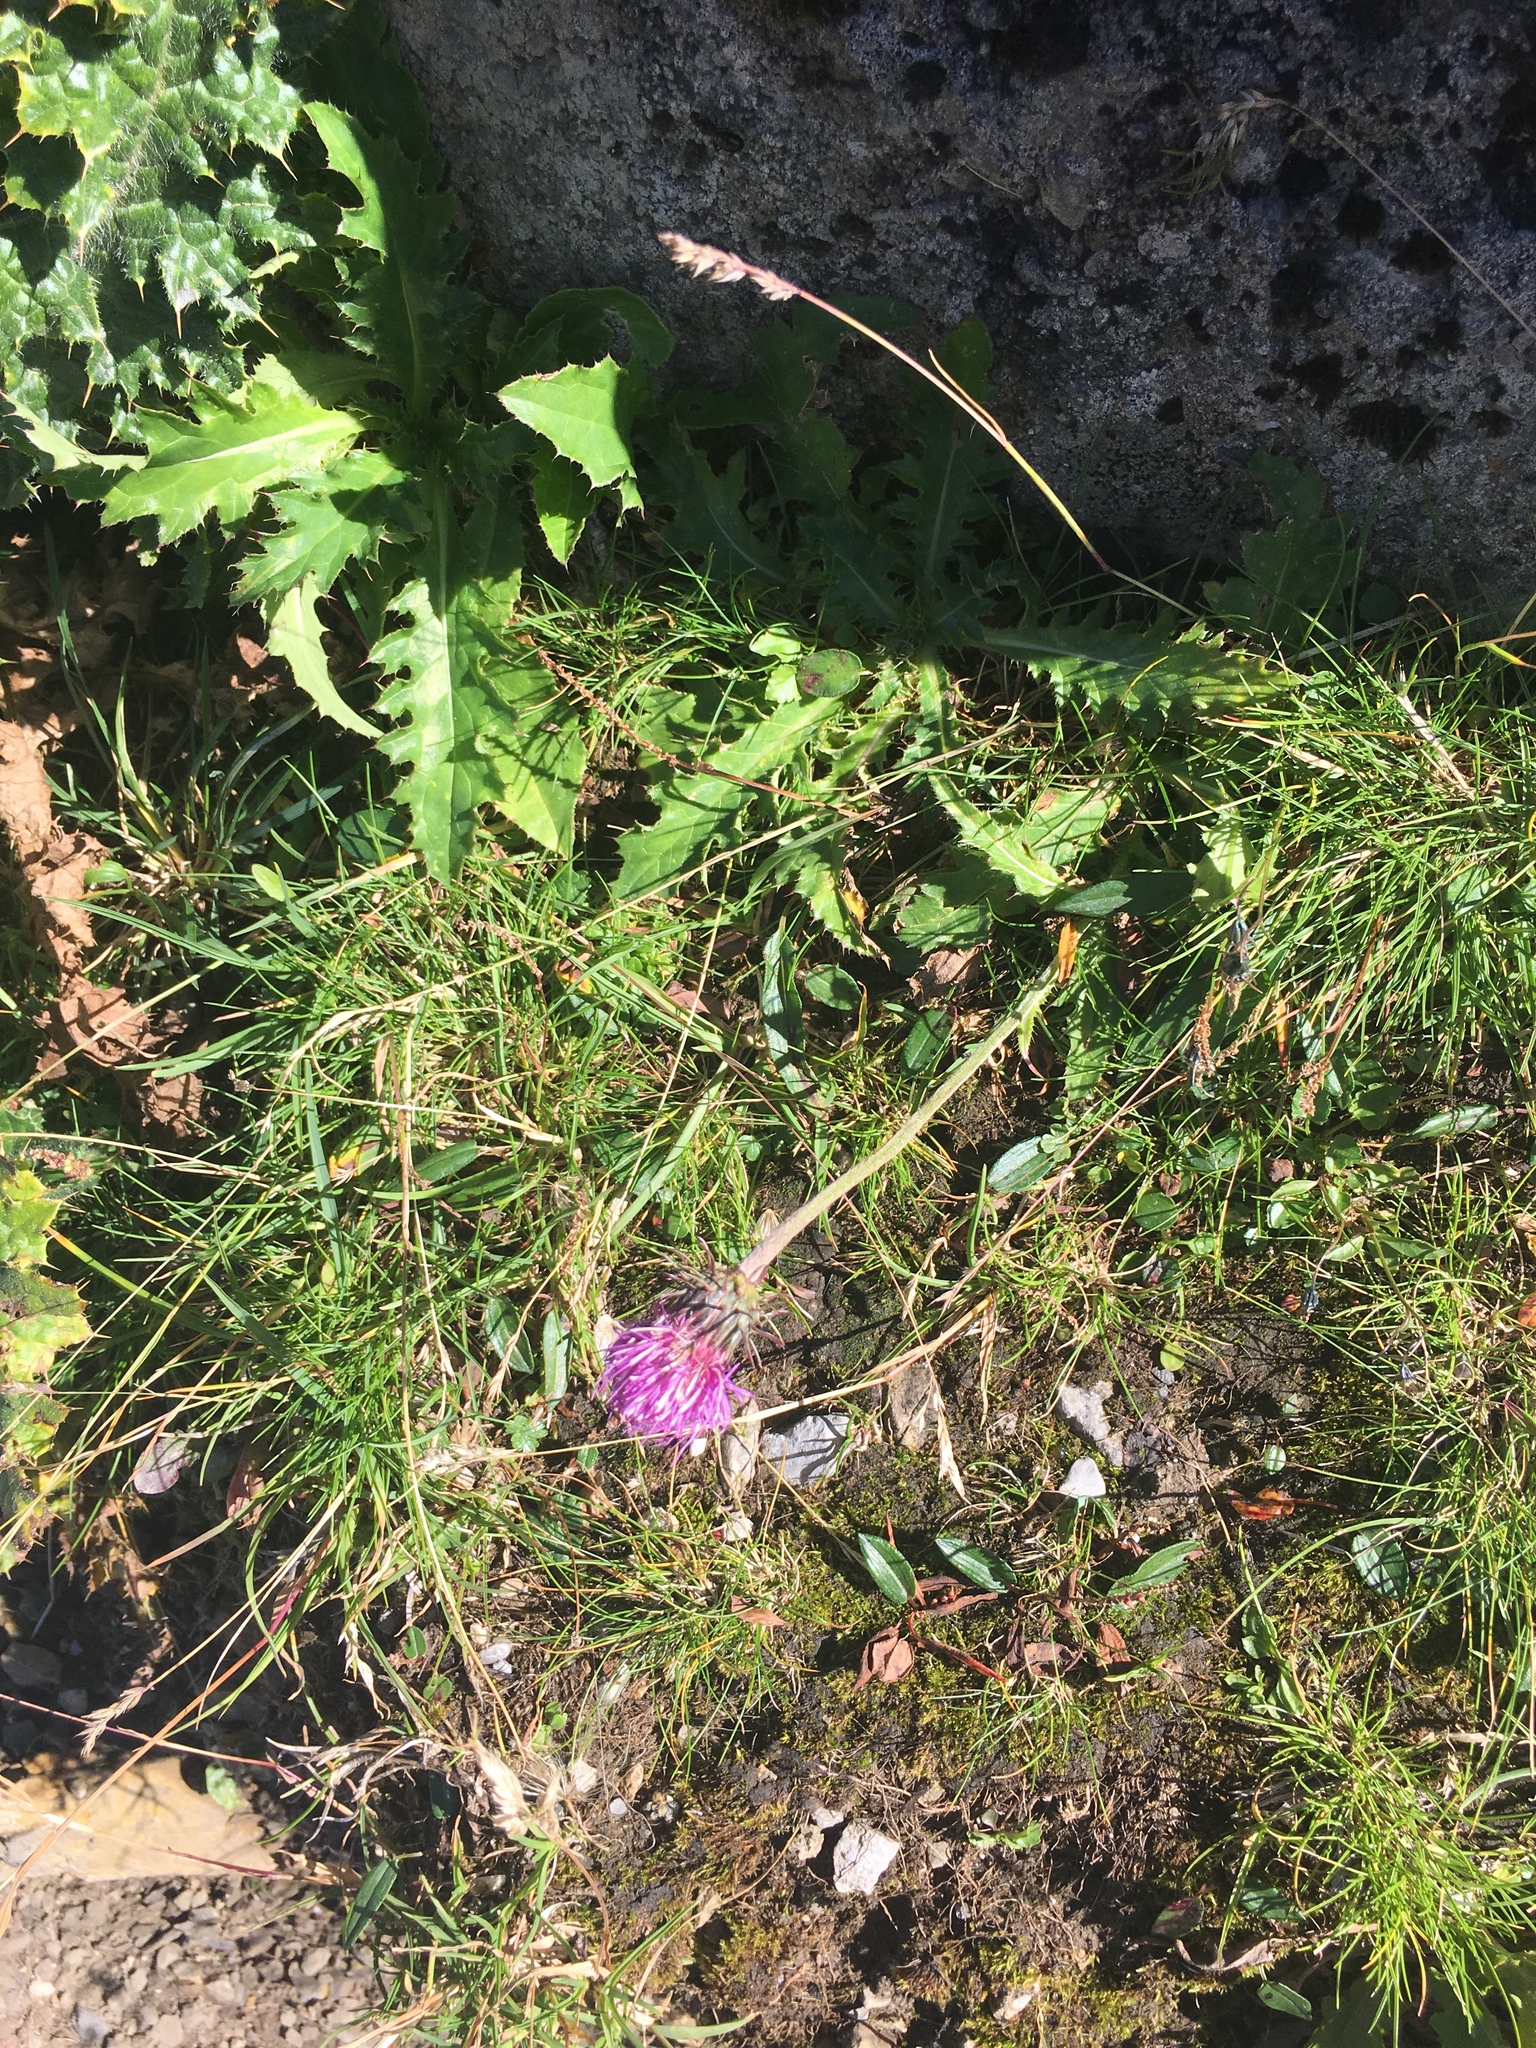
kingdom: Plantae
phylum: Tracheophyta
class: Magnoliopsida
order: Asterales
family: Asteraceae
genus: Carduus
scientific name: Carduus defloratus
